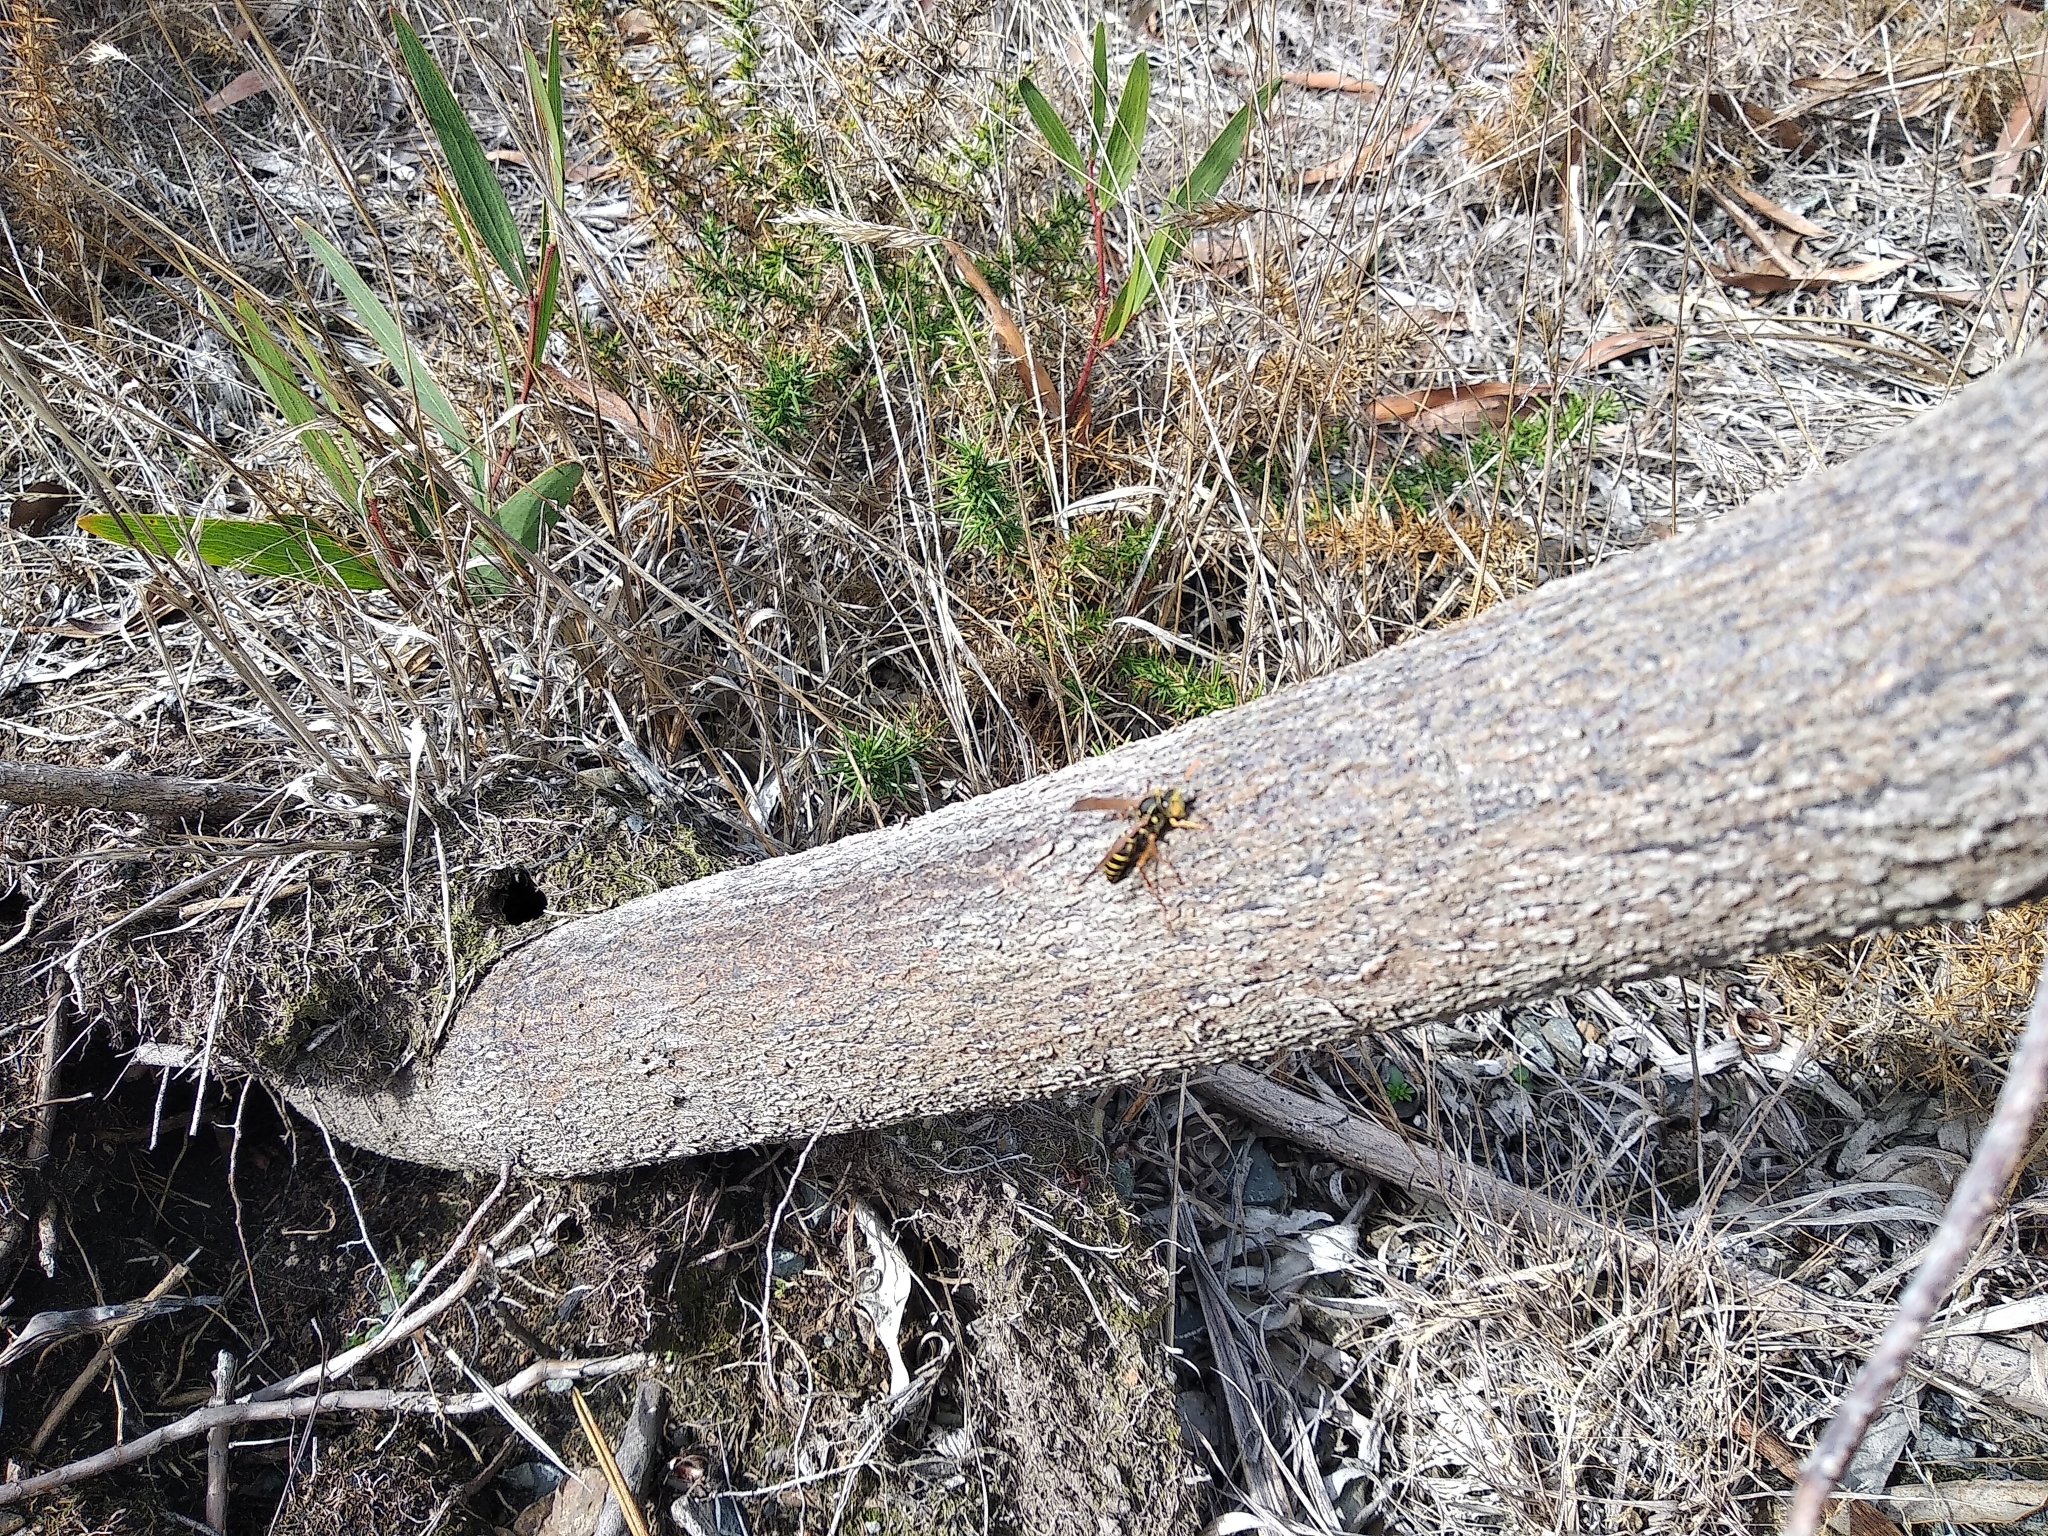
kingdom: Animalia
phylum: Arthropoda
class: Insecta
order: Hymenoptera
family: Eumenidae
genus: Polistes
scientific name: Polistes chinensis
